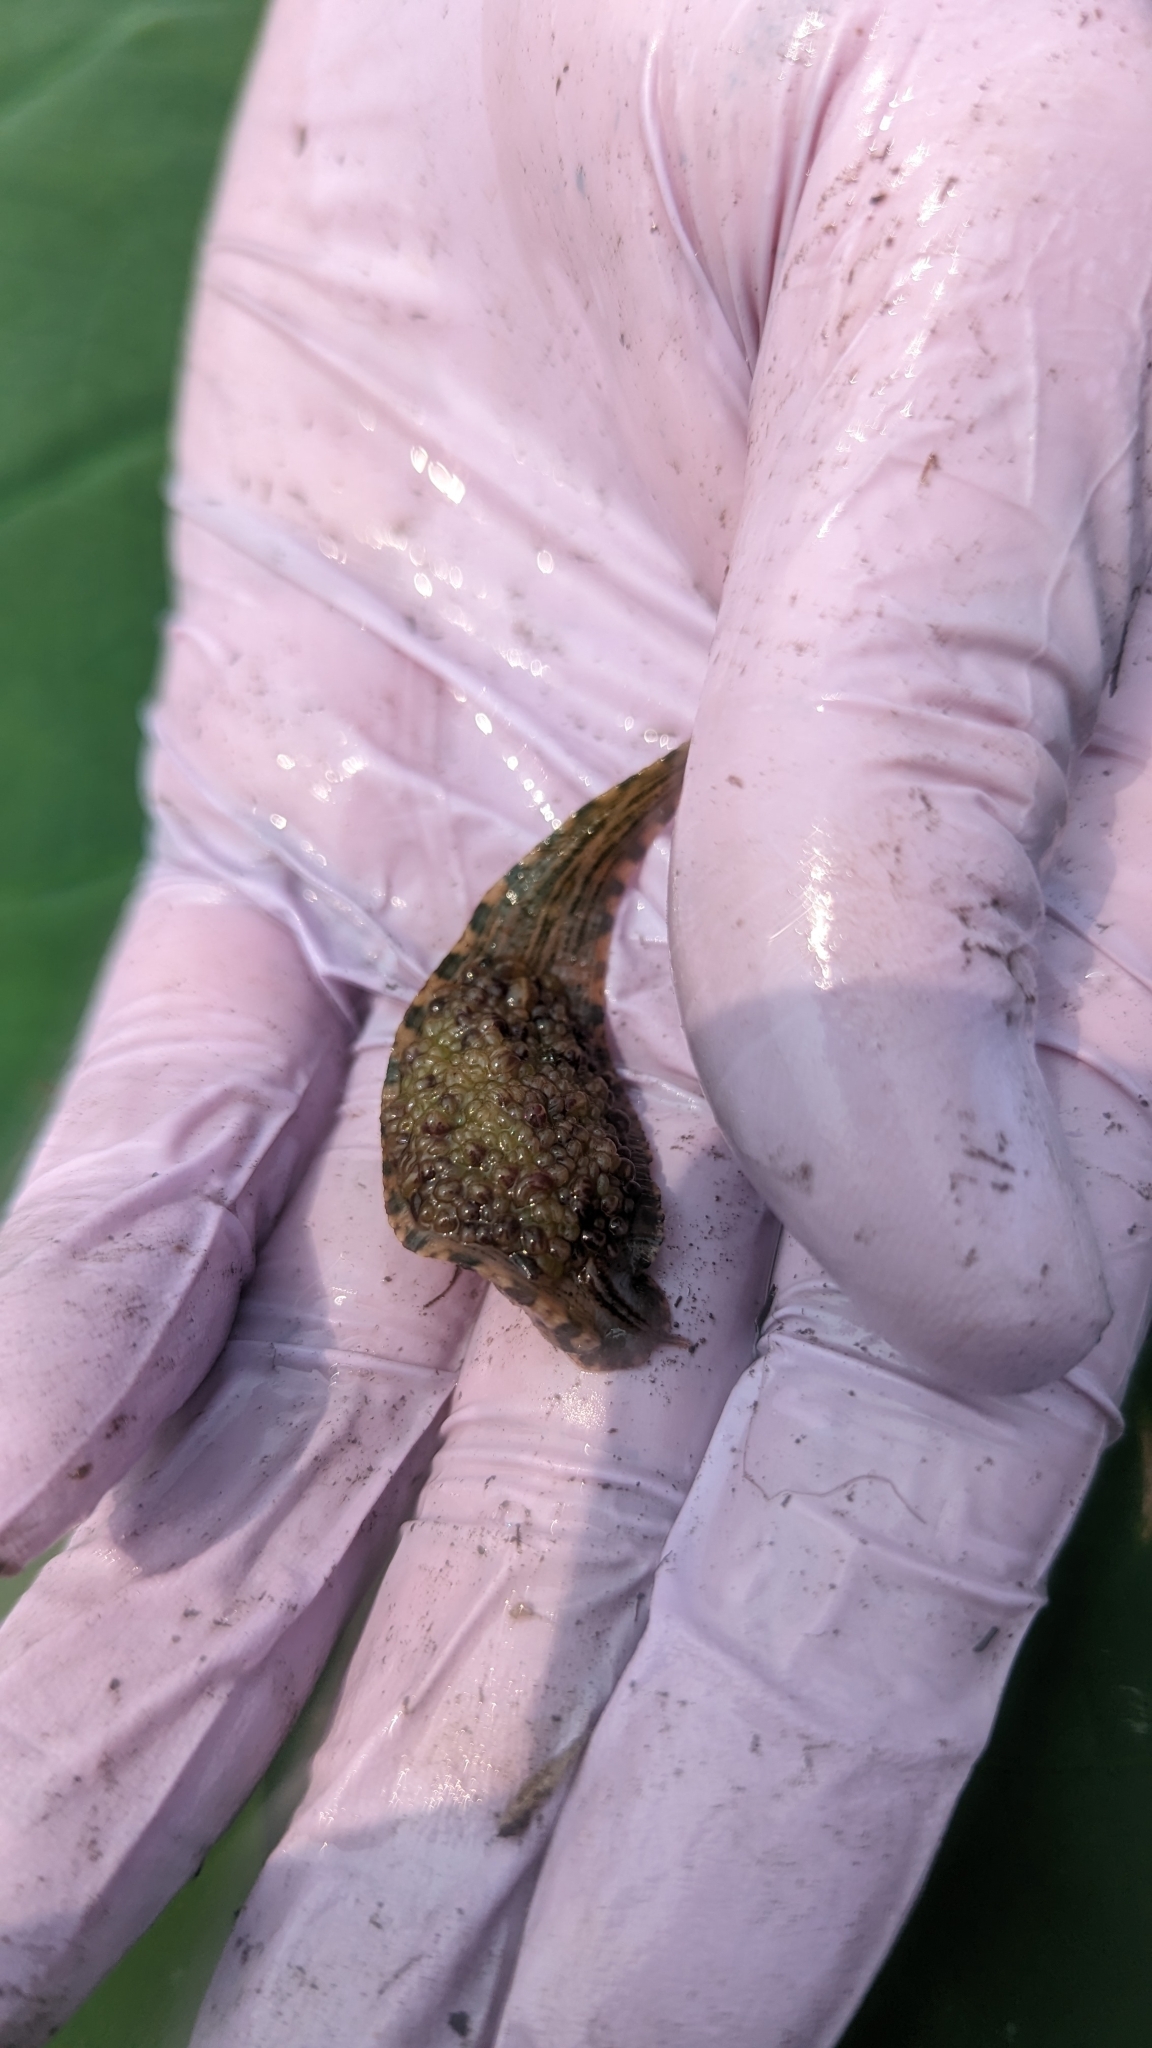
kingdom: Animalia
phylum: Annelida
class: Clitellata
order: Rhynchobdellida
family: Glossiphoniidae
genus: Placobdella
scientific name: Placobdella parasitica
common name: Smooth turtle leech
